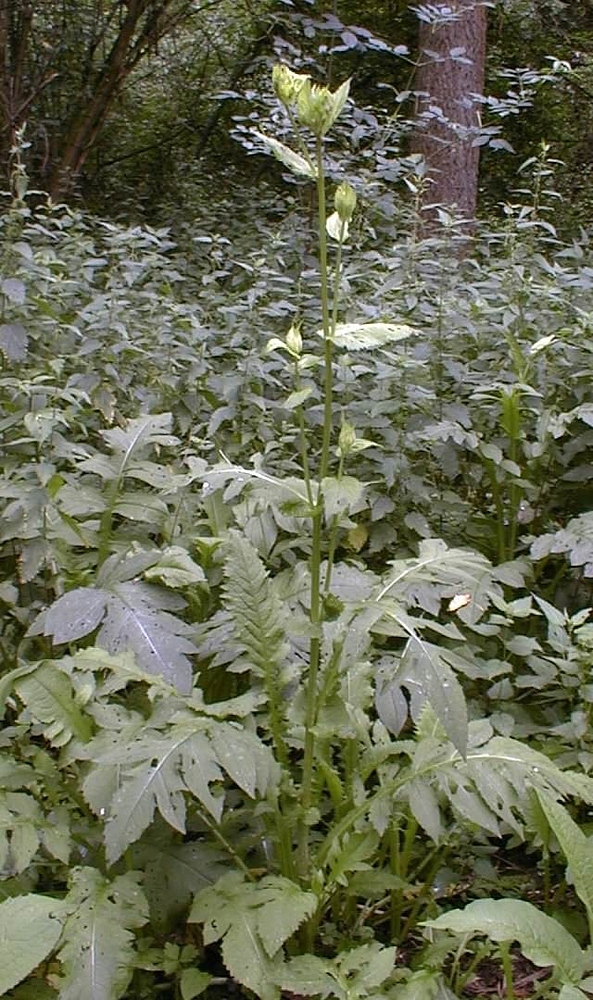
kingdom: Plantae
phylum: Tracheophyta
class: Magnoliopsida
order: Asterales
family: Asteraceae
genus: Cirsium
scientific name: Cirsium oleraceum
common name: Cabbage thistle
